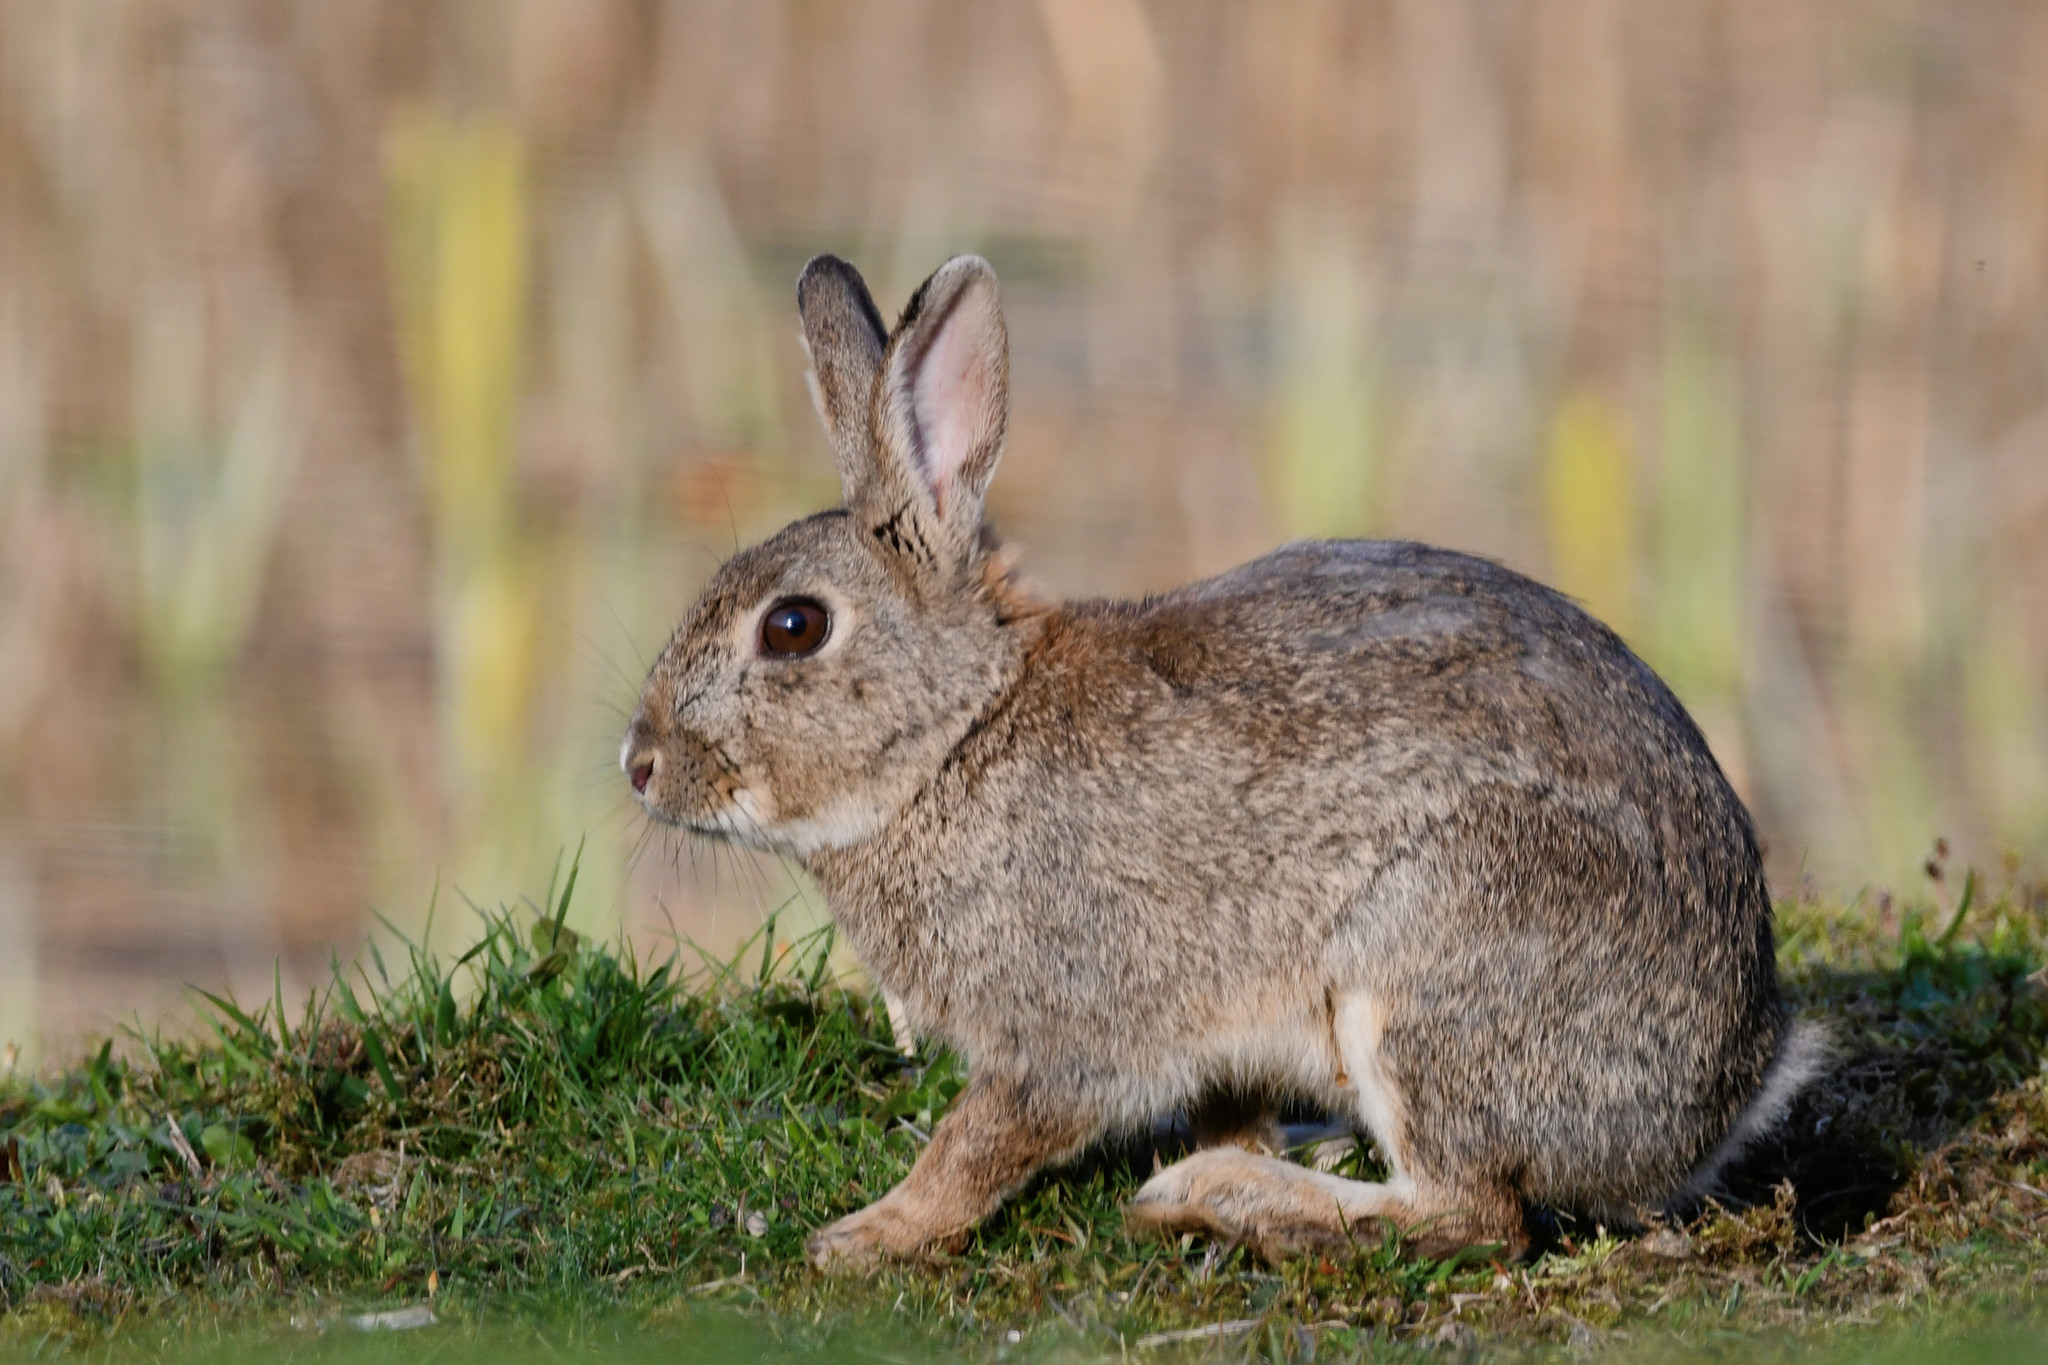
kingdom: Animalia
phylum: Chordata
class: Mammalia
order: Lagomorpha
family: Leporidae
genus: Oryctolagus
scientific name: Oryctolagus cuniculus
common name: European rabbit
